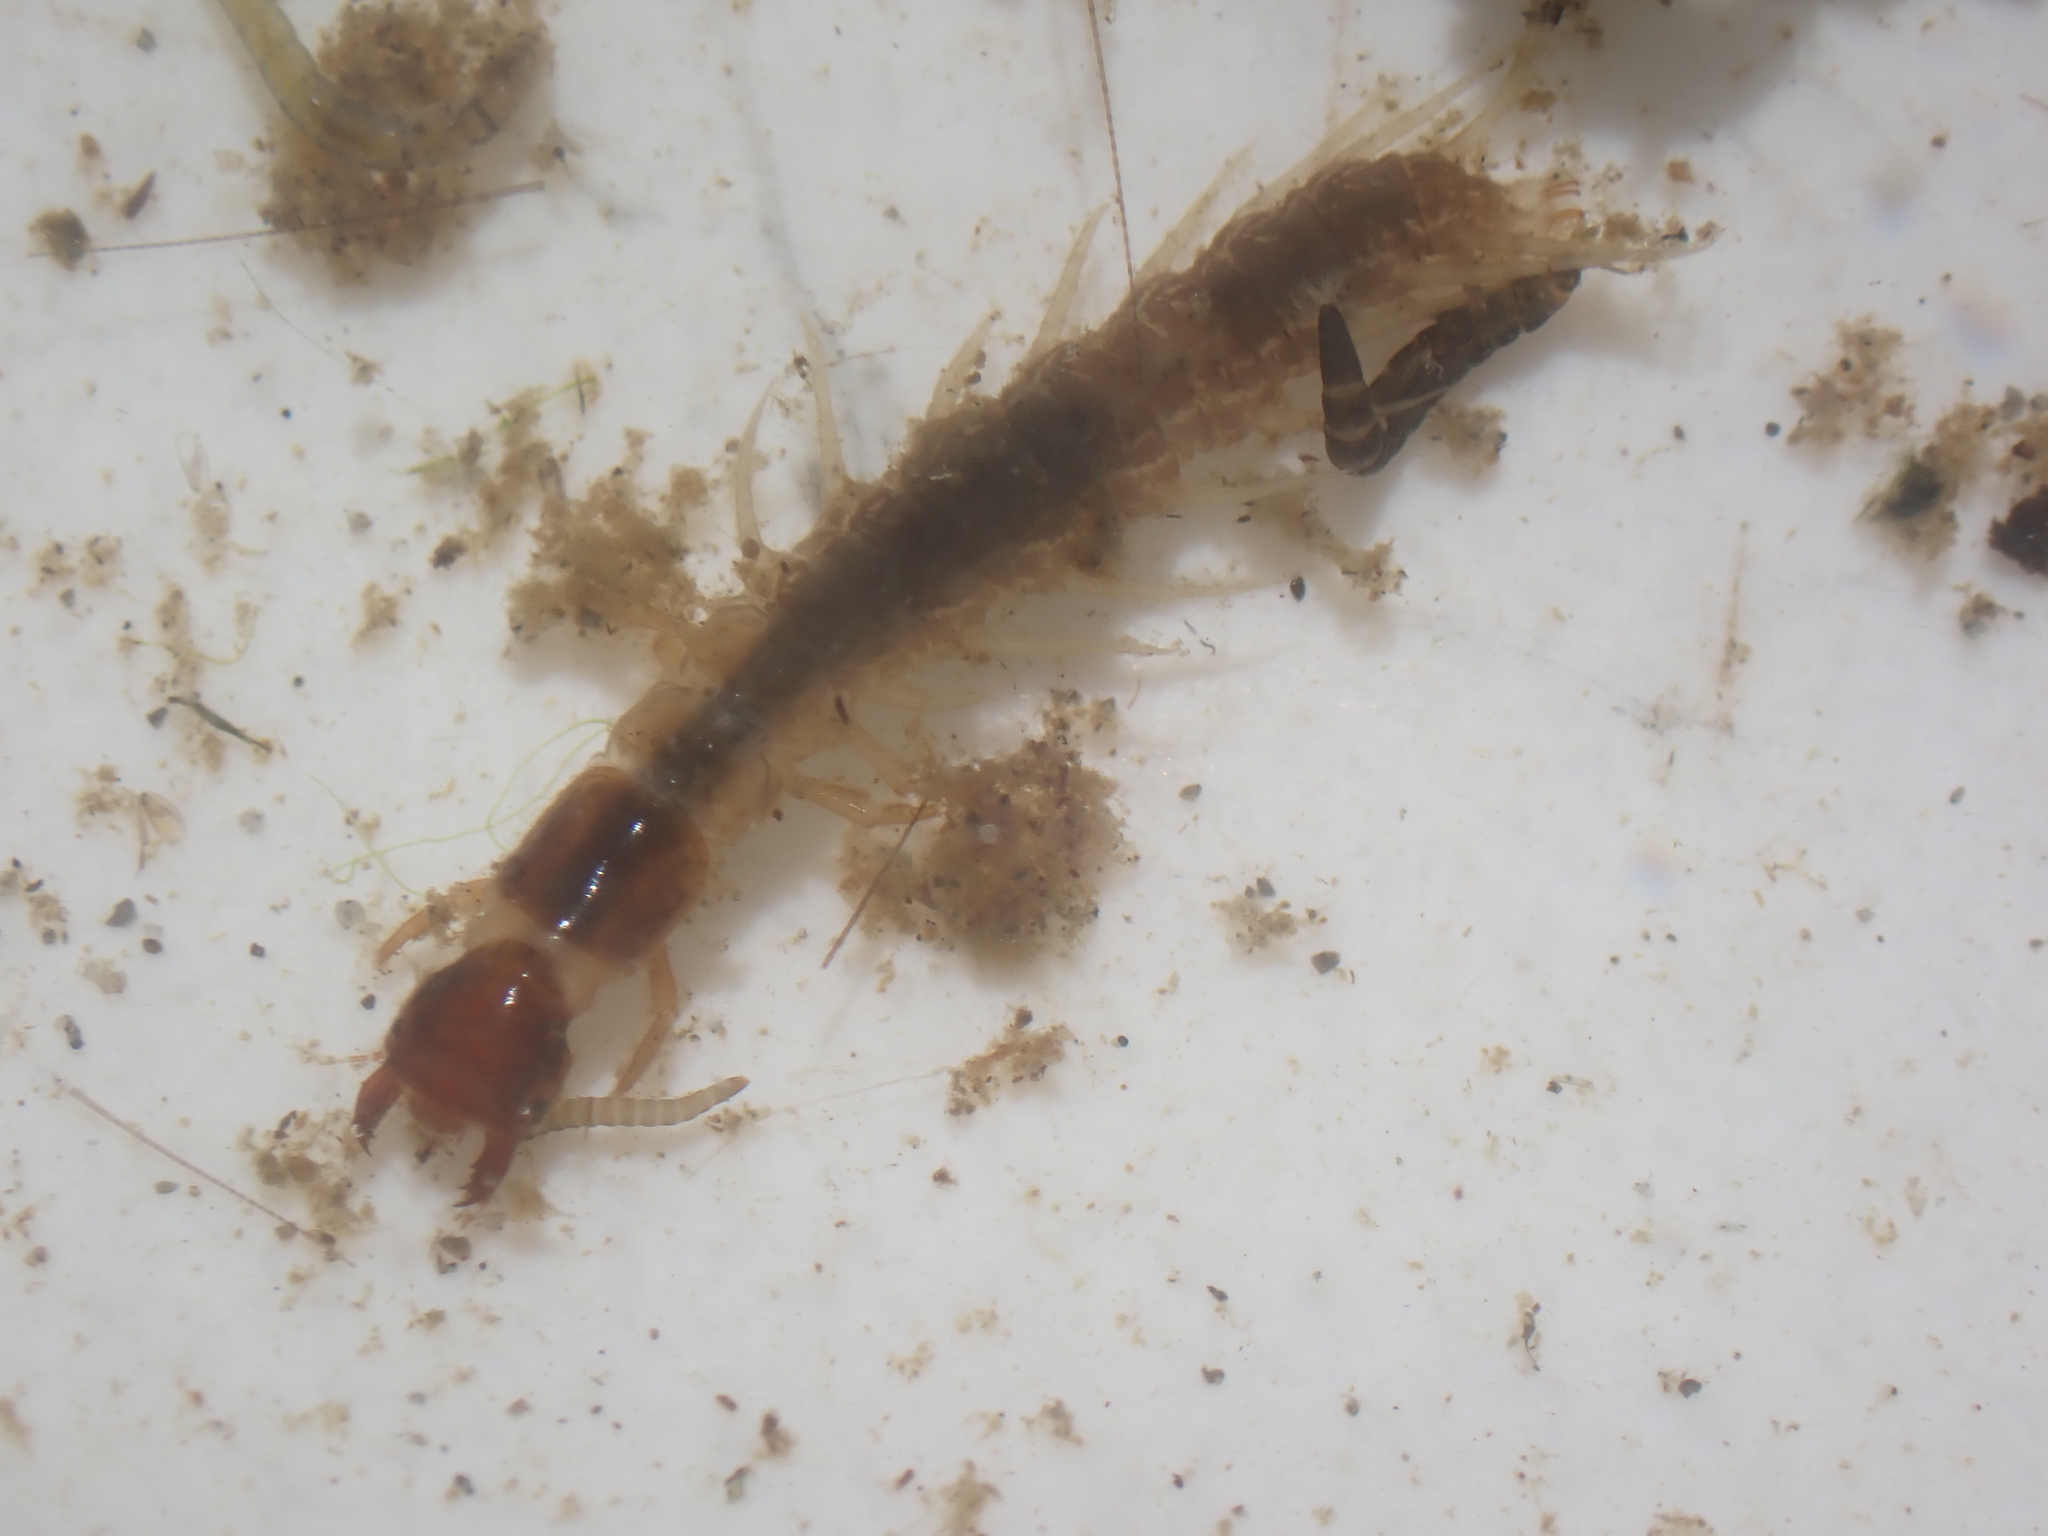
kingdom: Animalia
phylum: Arthropoda
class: Insecta
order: Megaloptera
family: Corydalidae
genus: Archichauliodes
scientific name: Archichauliodes diversus
